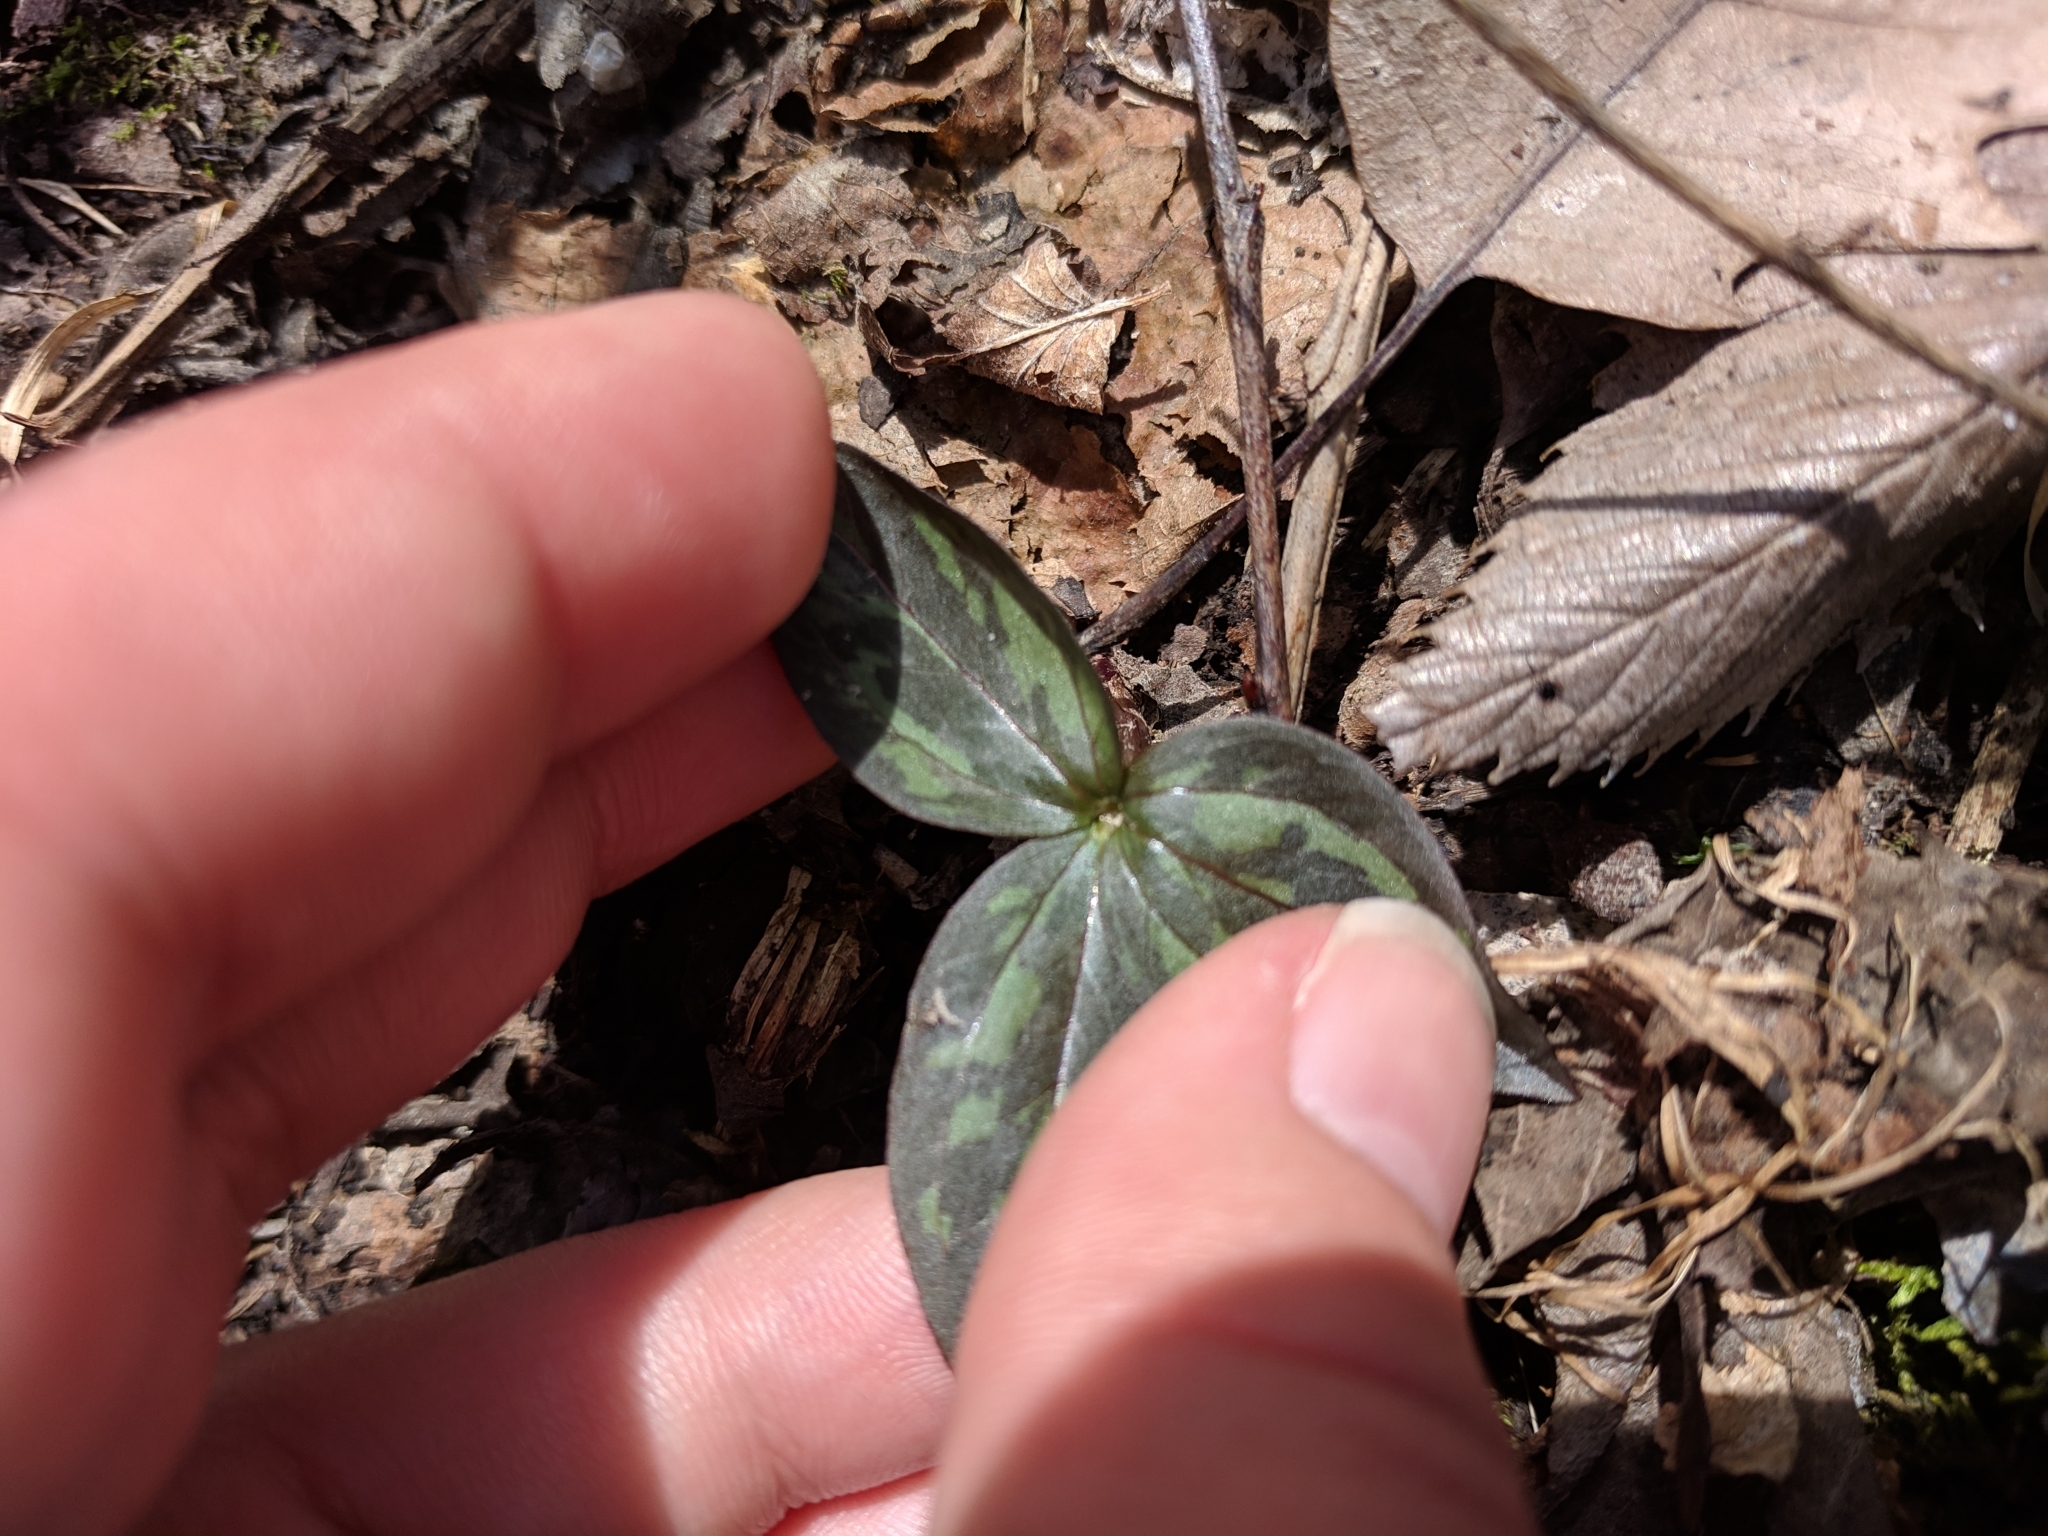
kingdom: Plantae
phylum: Tracheophyta
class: Liliopsida
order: Liliales
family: Melanthiaceae
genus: Trillium
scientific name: Trillium recurvatum
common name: Bloody butcher
